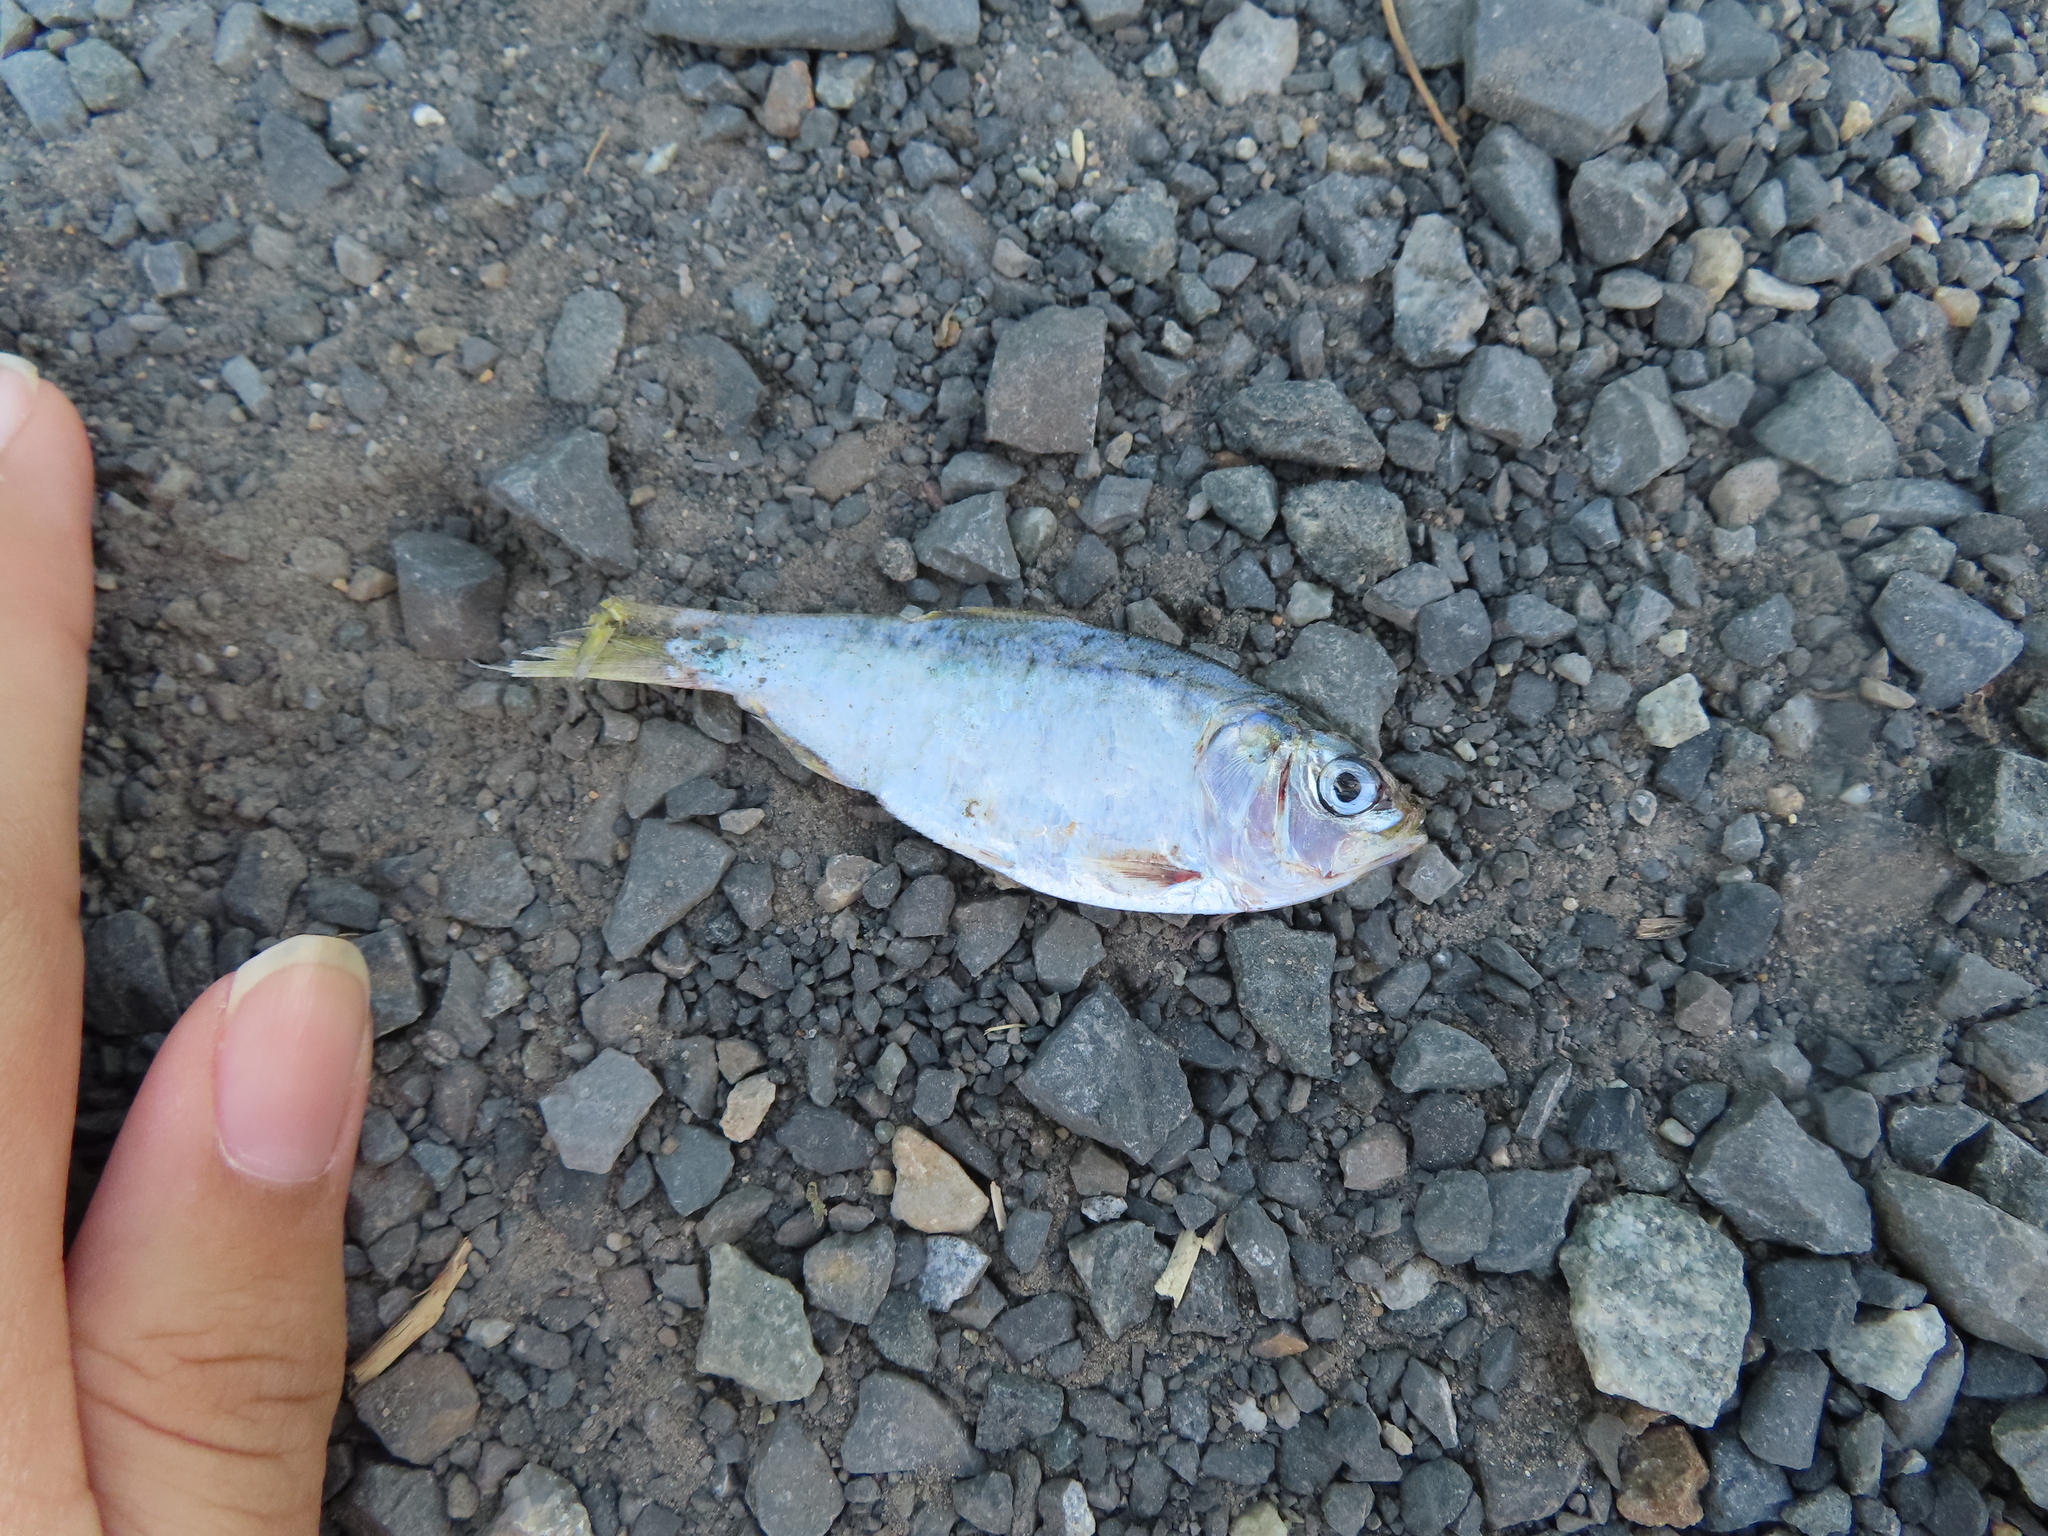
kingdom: Animalia
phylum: Chordata
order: Clupeiformes
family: Clupeidae
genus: Brevoortia
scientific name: Brevoortia tyrannus
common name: Atlantic menhaden
